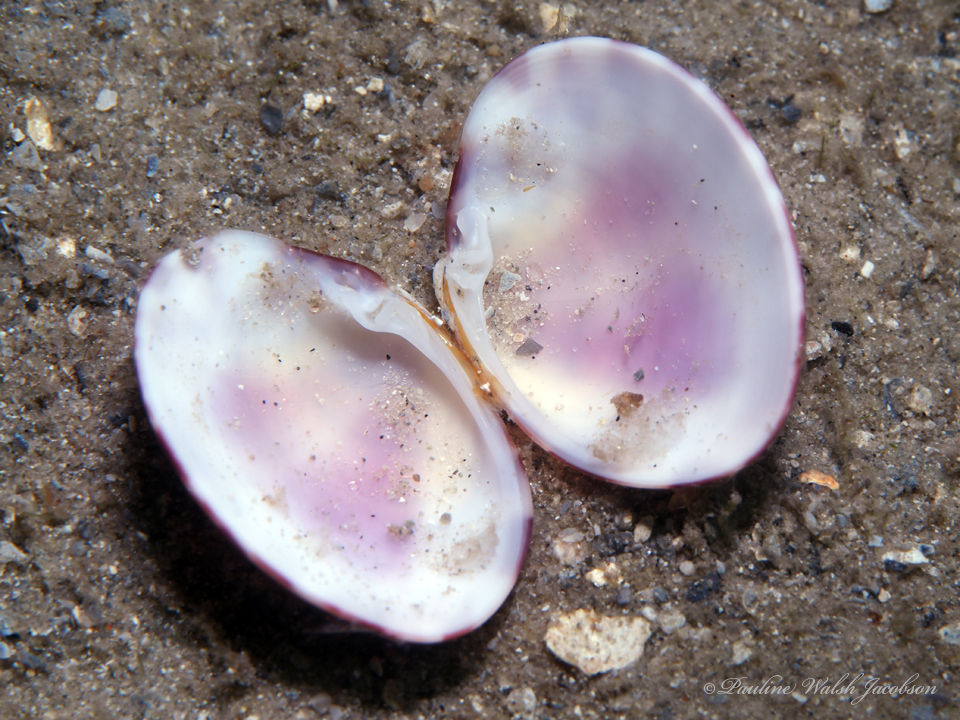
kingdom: Animalia
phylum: Mollusca
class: Bivalvia
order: Venerida
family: Veneridae
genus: Megapitaria
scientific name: Megapitaria maculata
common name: Calico clam
